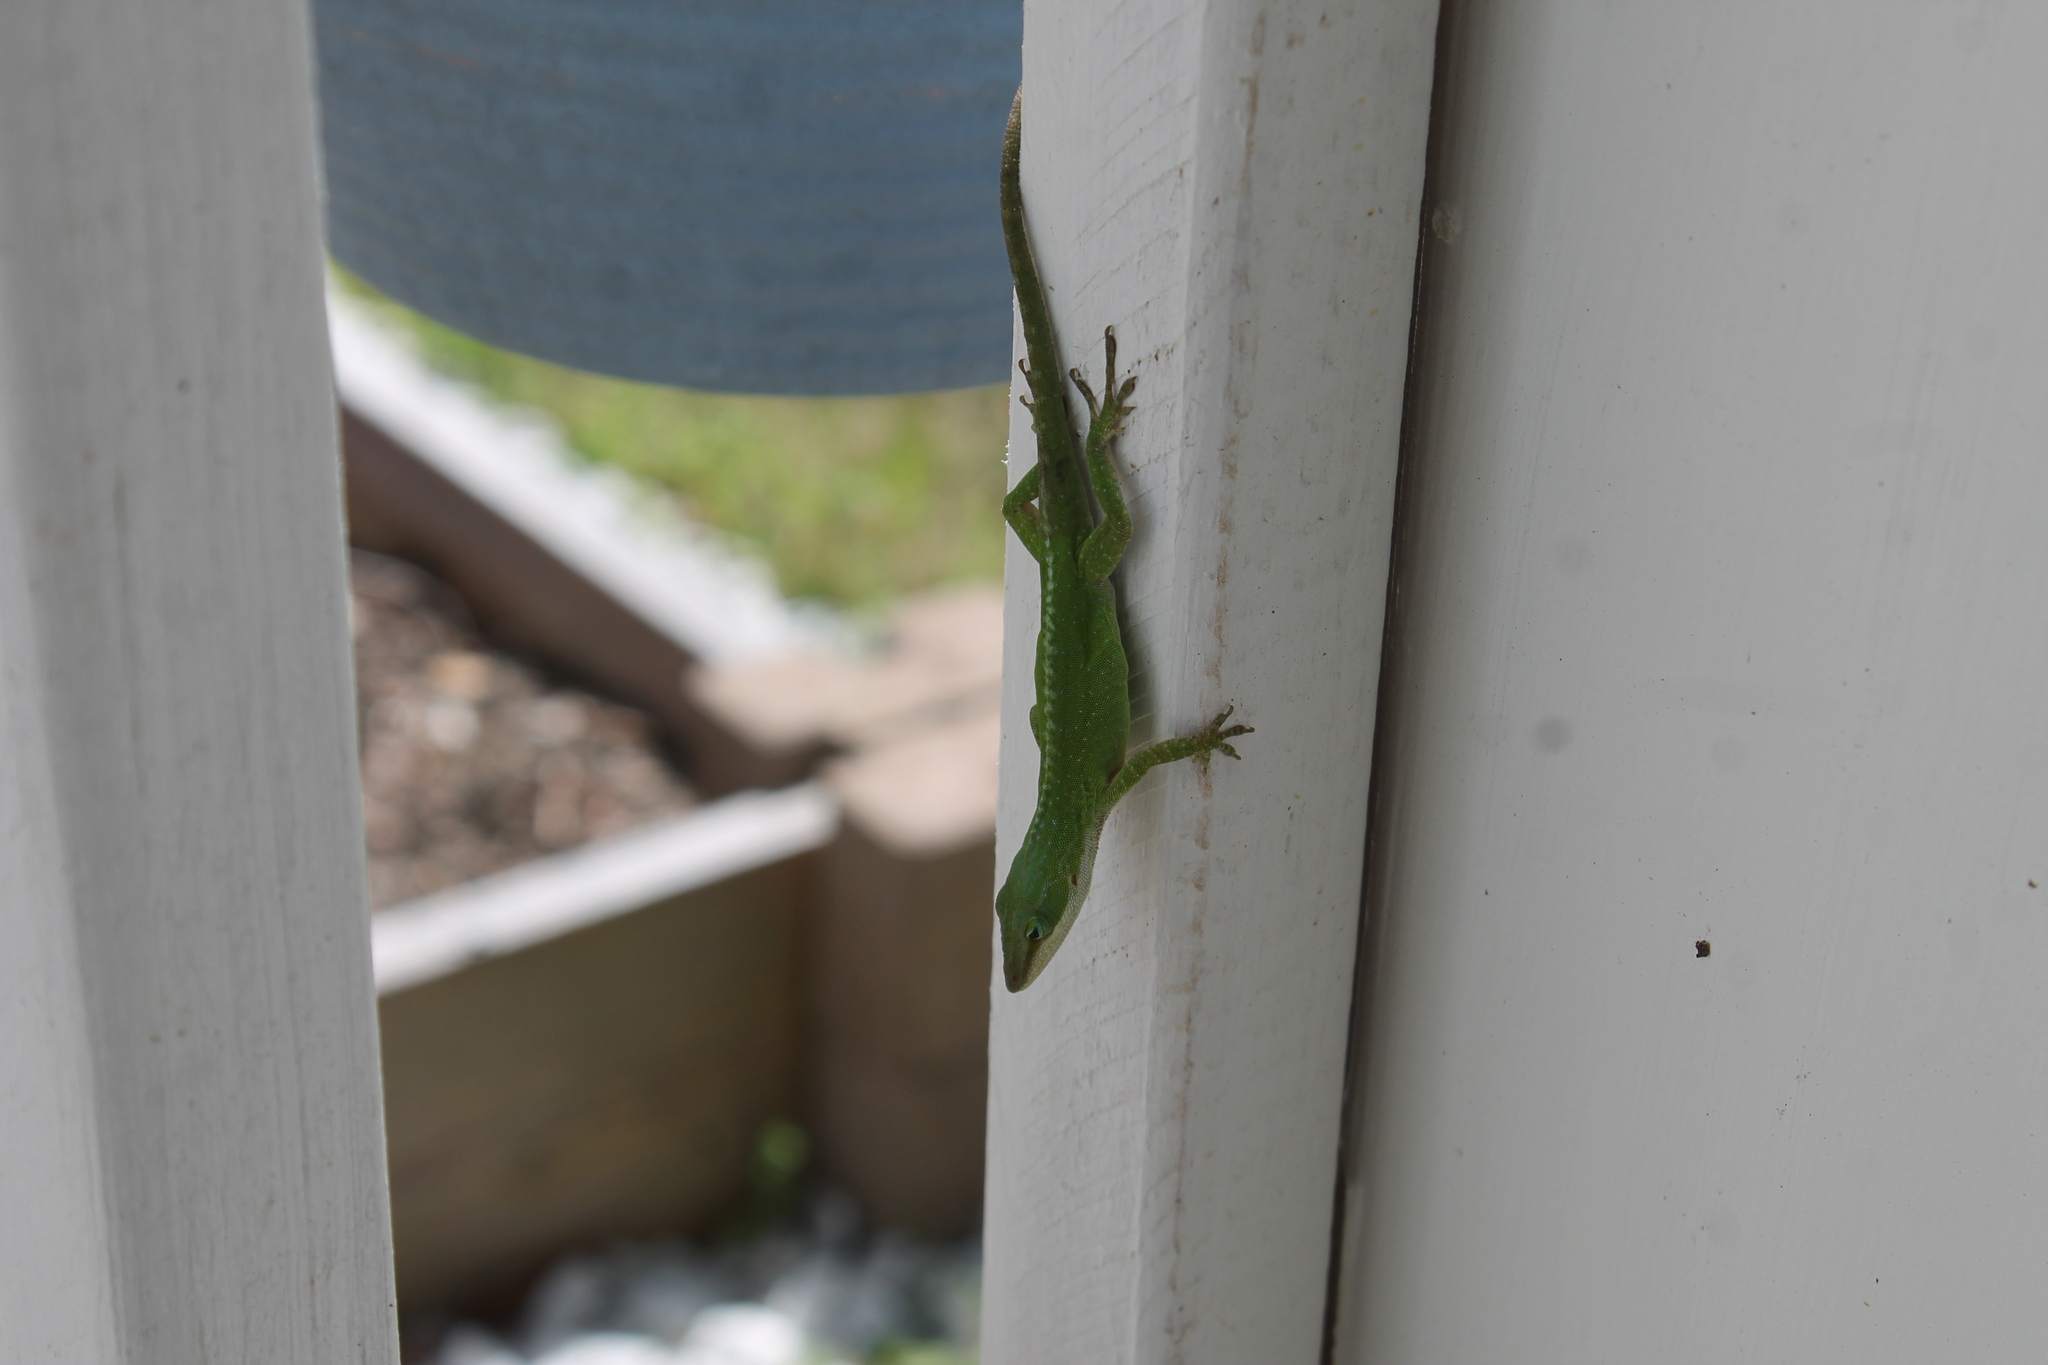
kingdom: Animalia
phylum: Chordata
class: Squamata
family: Dactyloidae
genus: Anolis
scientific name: Anolis carolinensis
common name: Green anole
